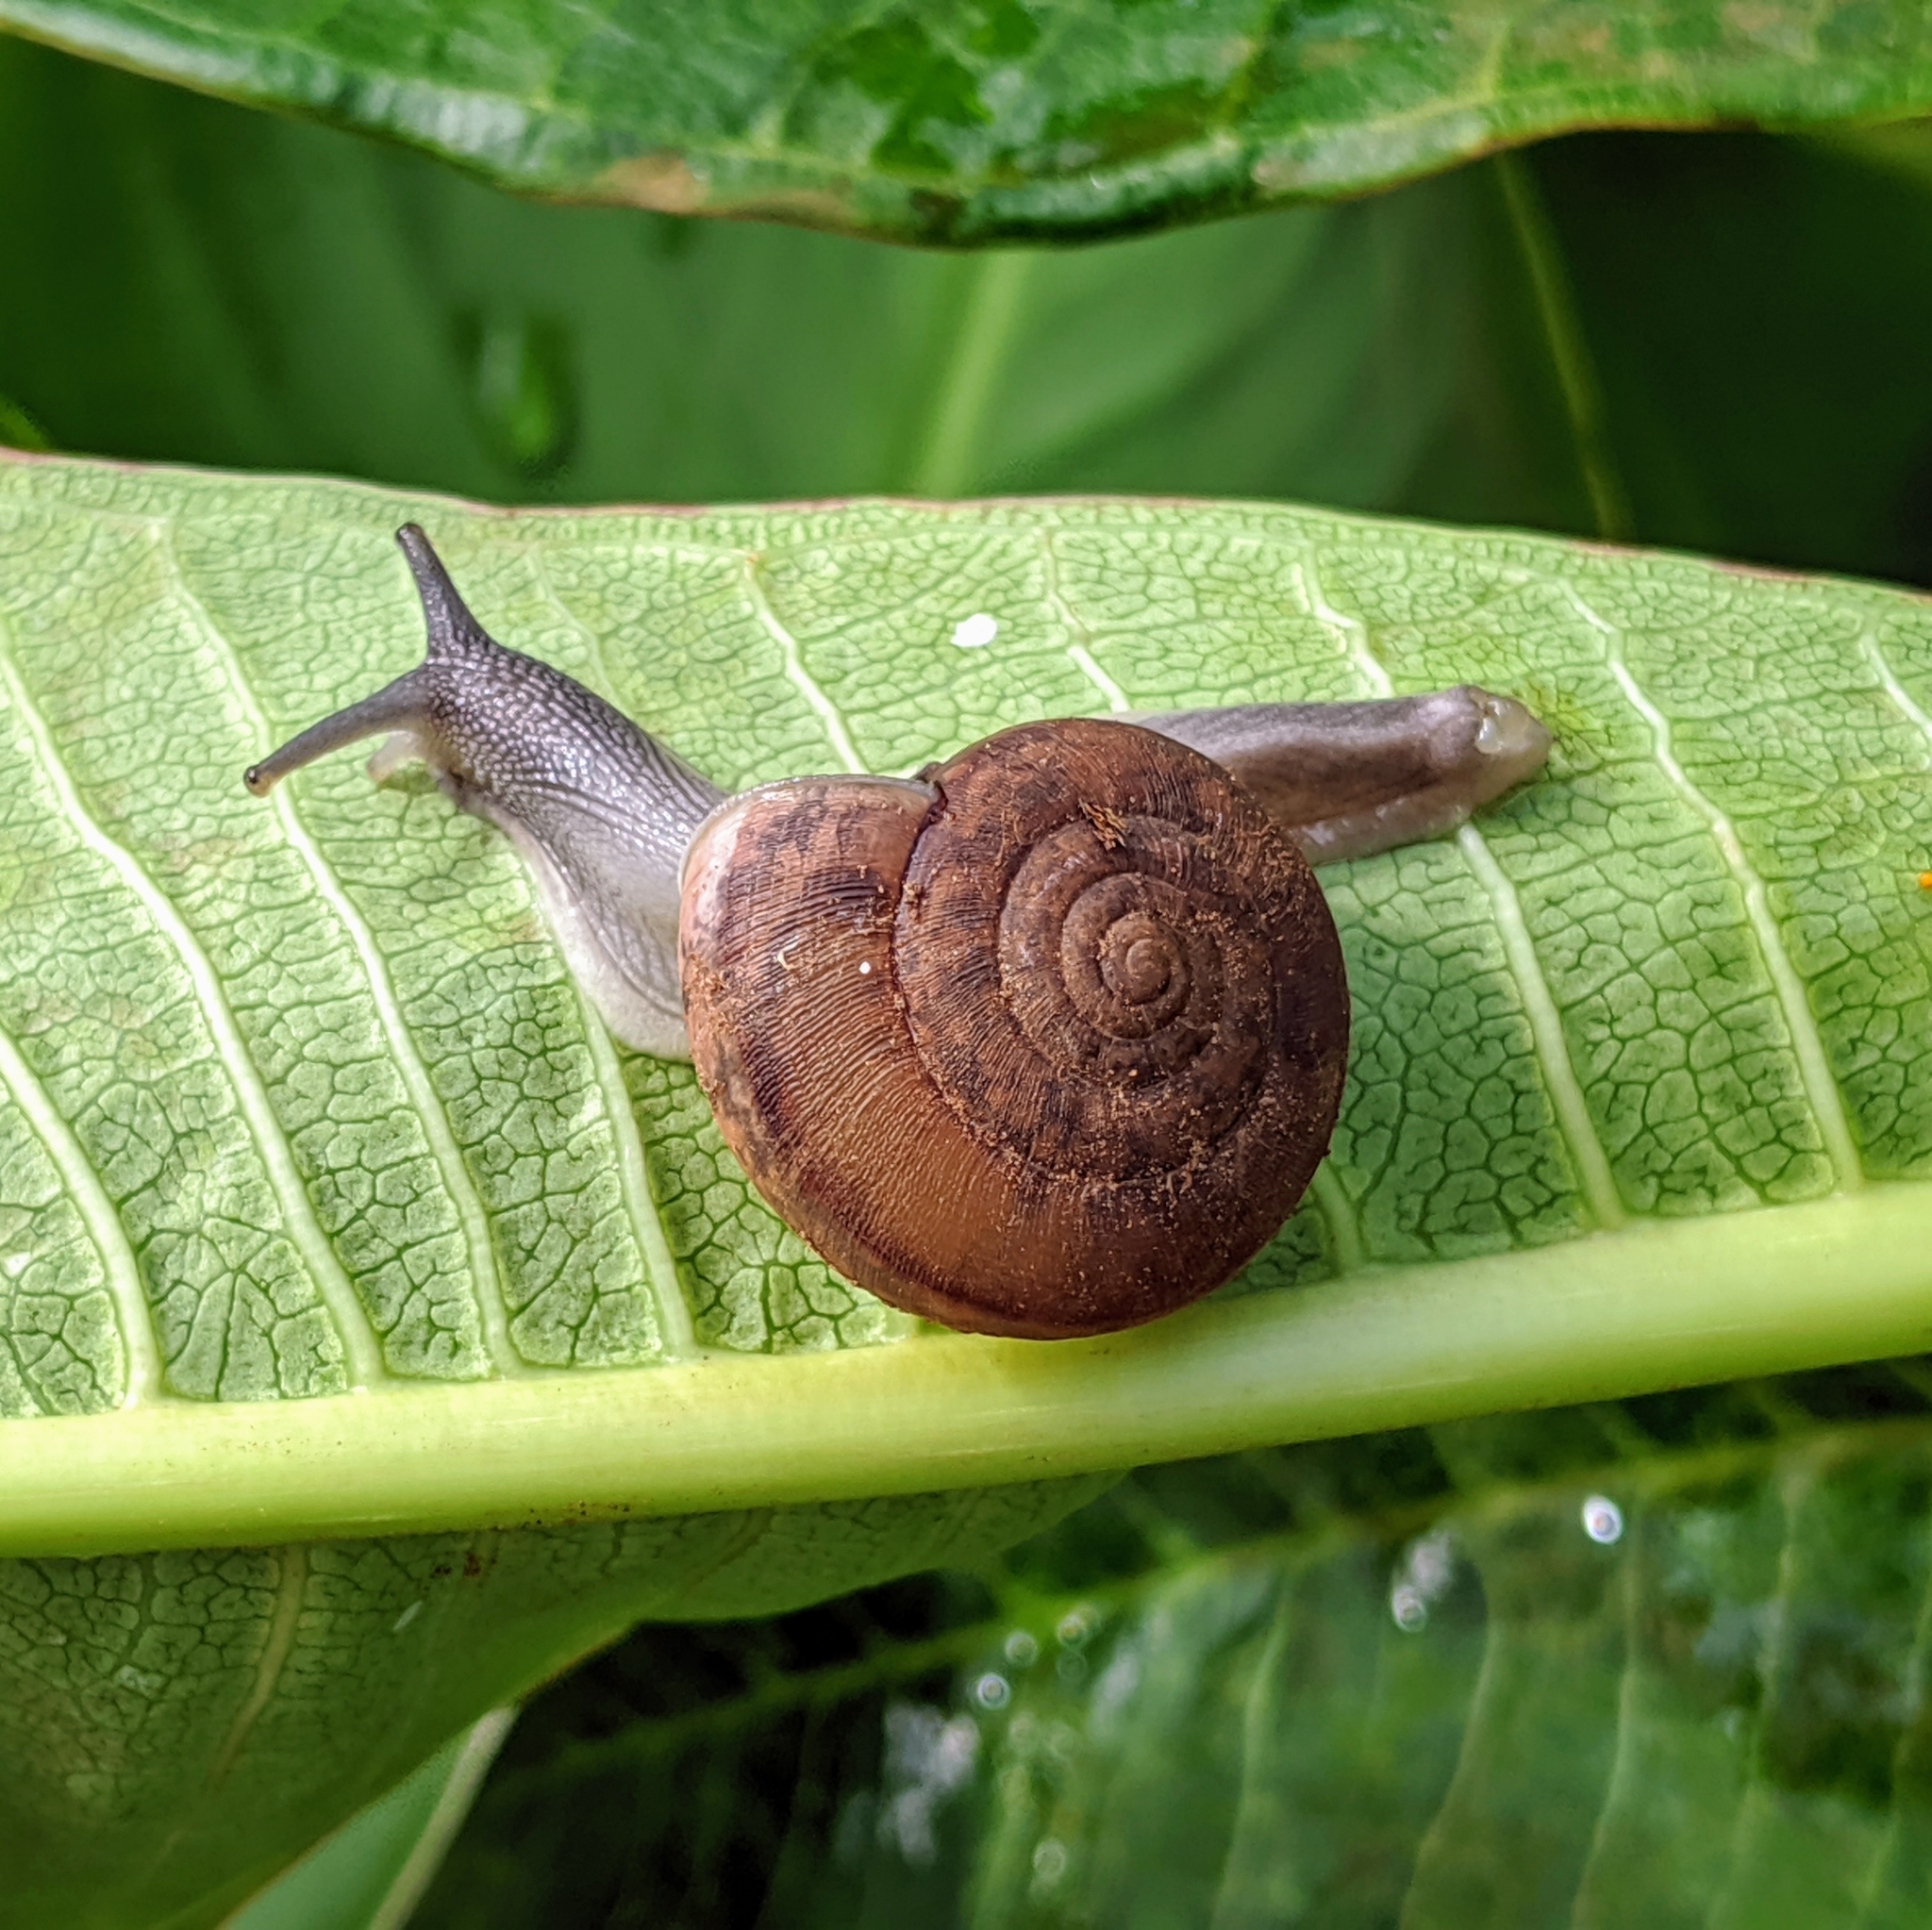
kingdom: Animalia
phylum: Mollusca
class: Gastropoda
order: Stylommatophora
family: Ariophantidae
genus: Sarika
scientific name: Sarika siamensis
